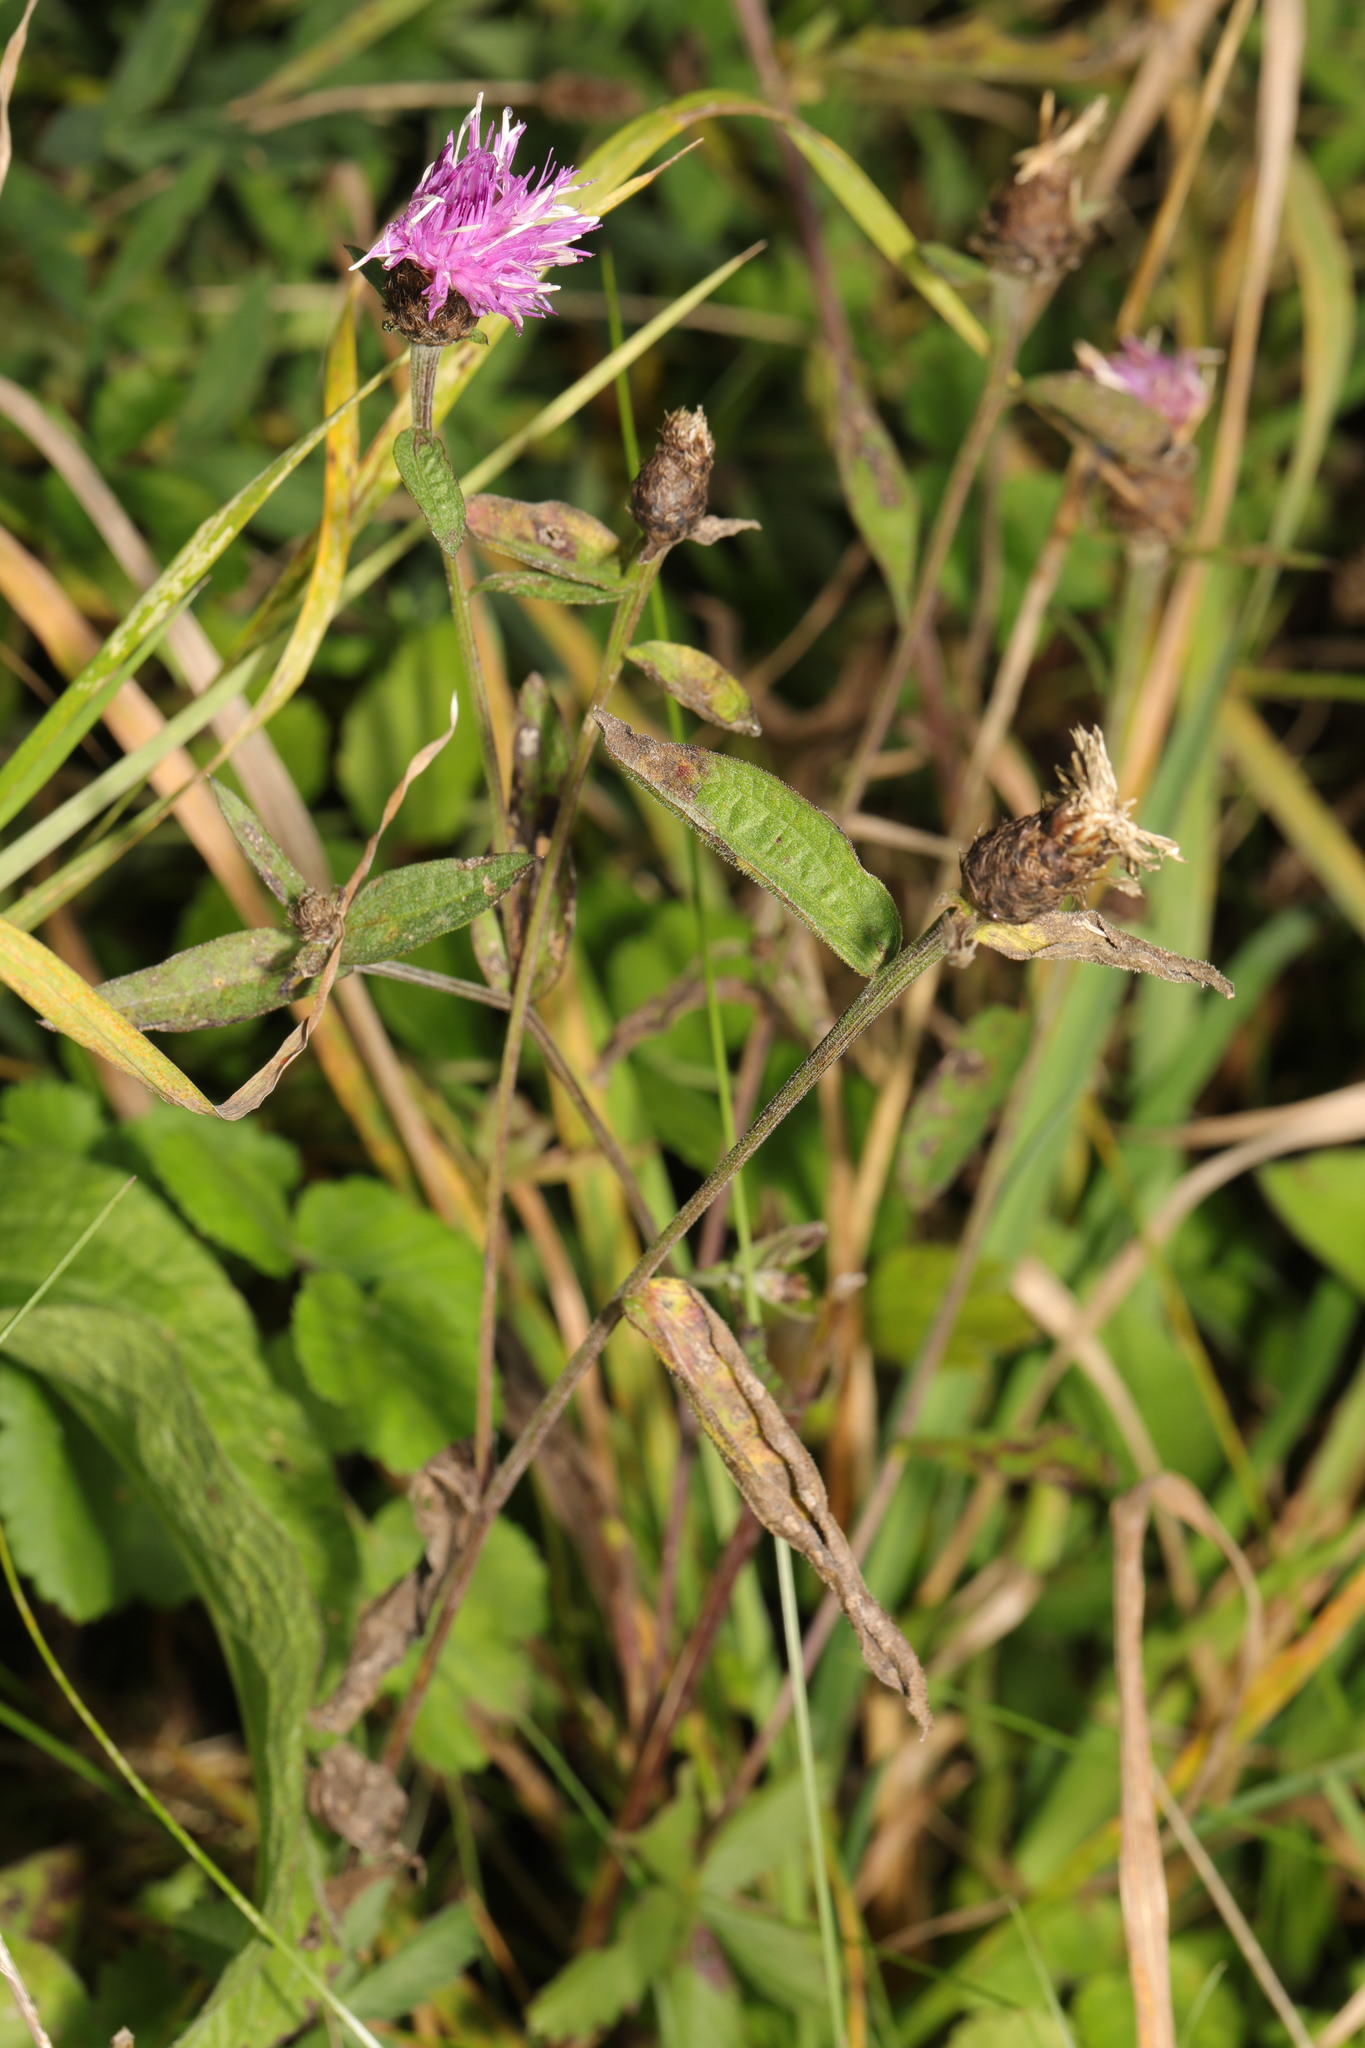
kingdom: Plantae
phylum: Tracheophyta
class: Magnoliopsida
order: Asterales
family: Asteraceae
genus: Centaurea
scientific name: Centaurea nigra
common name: Lesser knapweed
